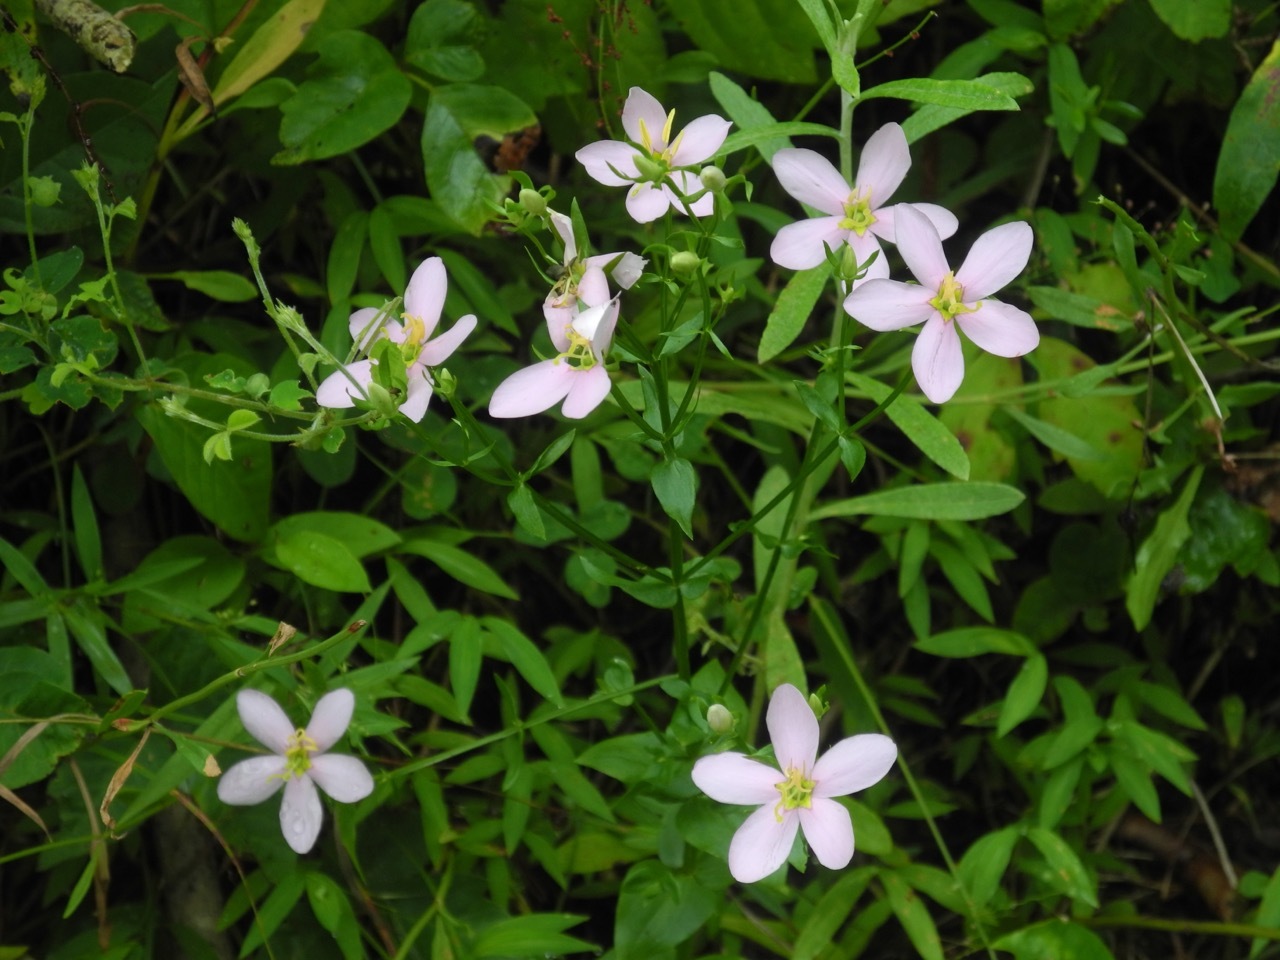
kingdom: Plantae
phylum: Tracheophyta
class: Magnoliopsida
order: Gentianales
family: Gentianaceae
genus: Sabatia
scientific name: Sabatia angularis
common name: Rose-pink
